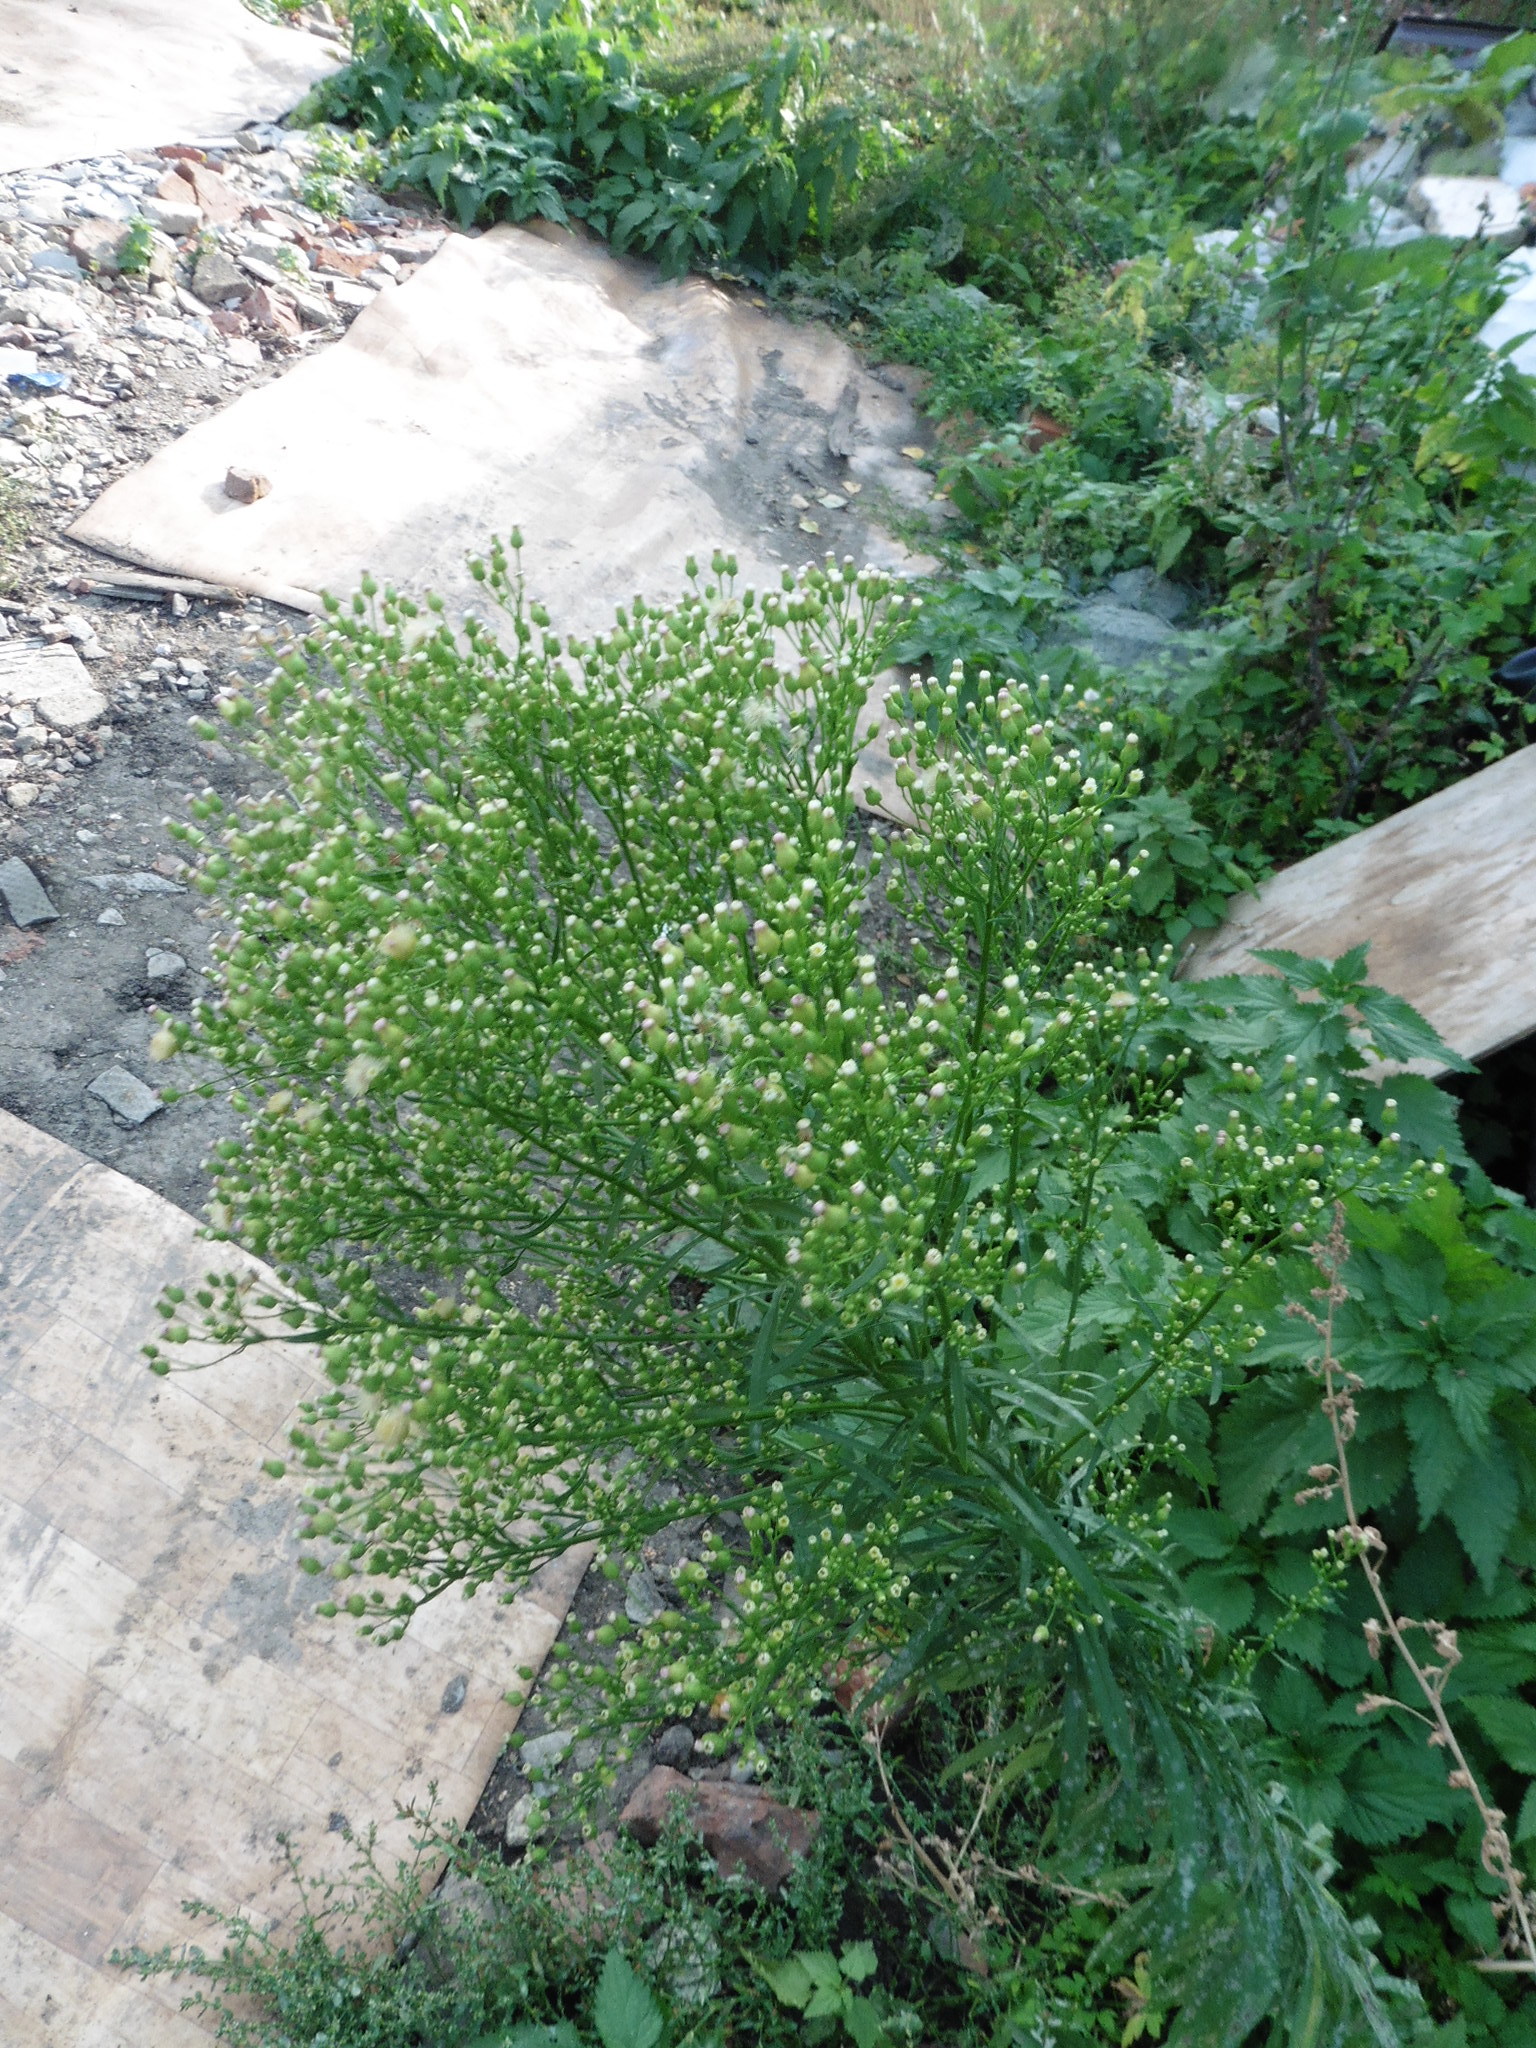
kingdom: Plantae
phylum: Tracheophyta
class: Magnoliopsida
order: Asterales
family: Asteraceae
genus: Erigeron
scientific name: Erigeron canadensis
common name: Canadian fleabane
